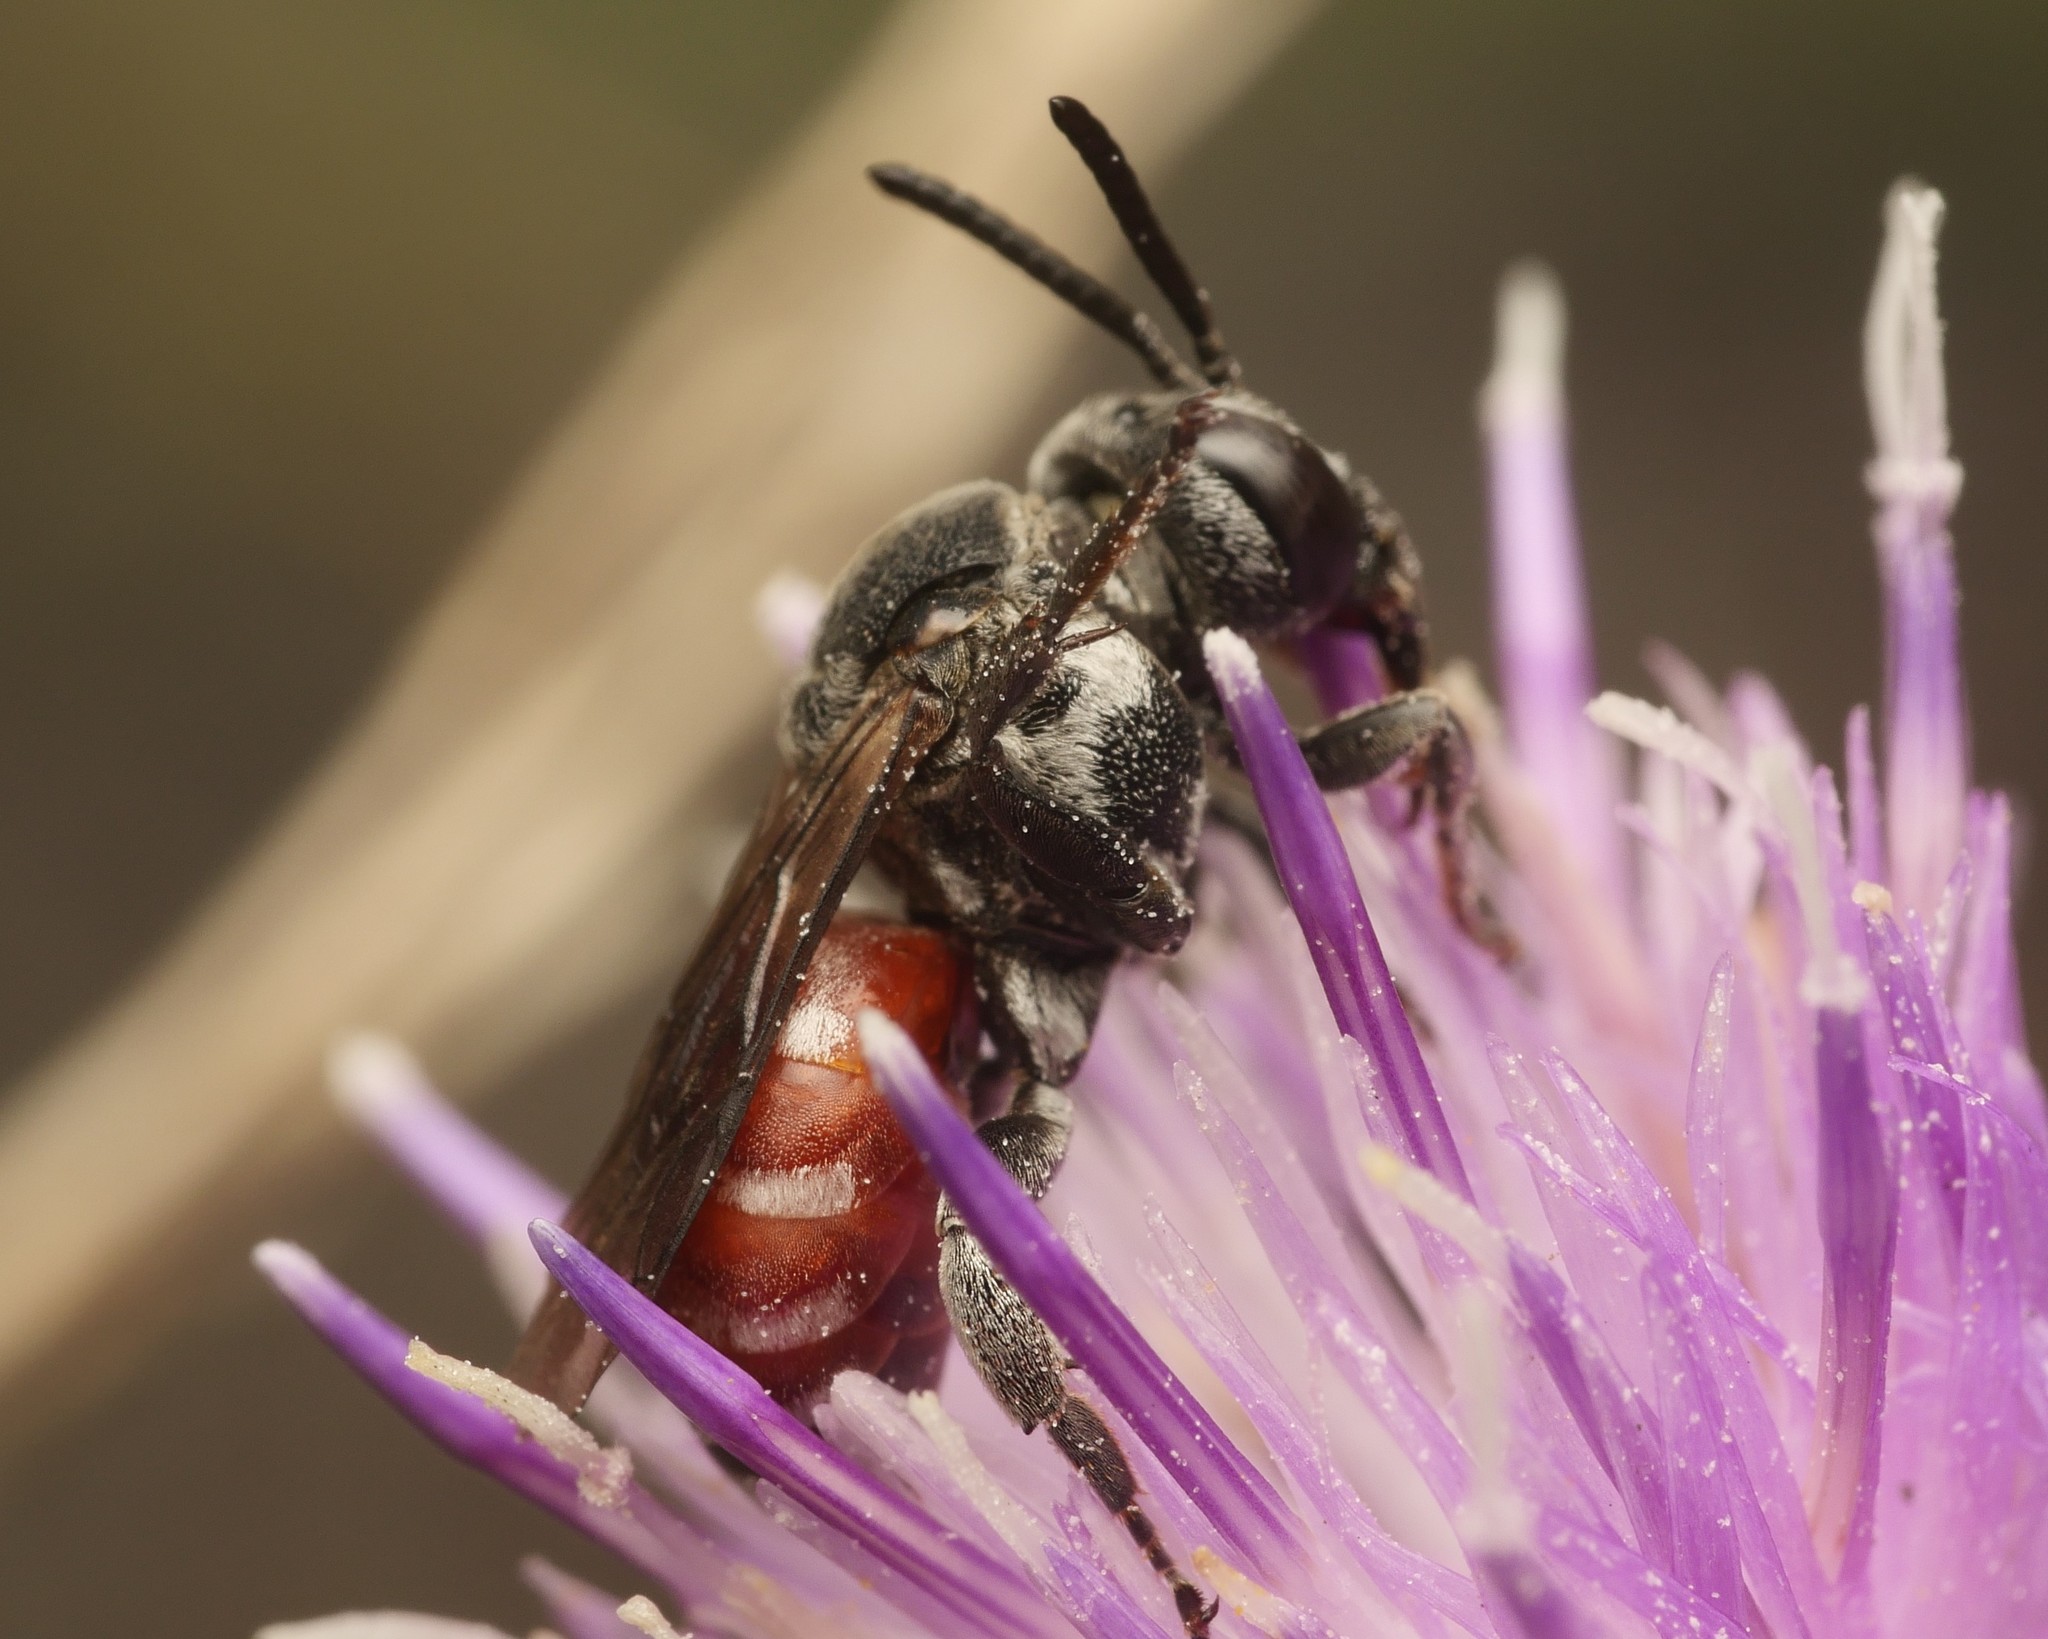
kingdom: Animalia
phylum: Arthropoda
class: Insecta
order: Hymenoptera
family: Apidae
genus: Ammobates
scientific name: Ammobates punctatus
